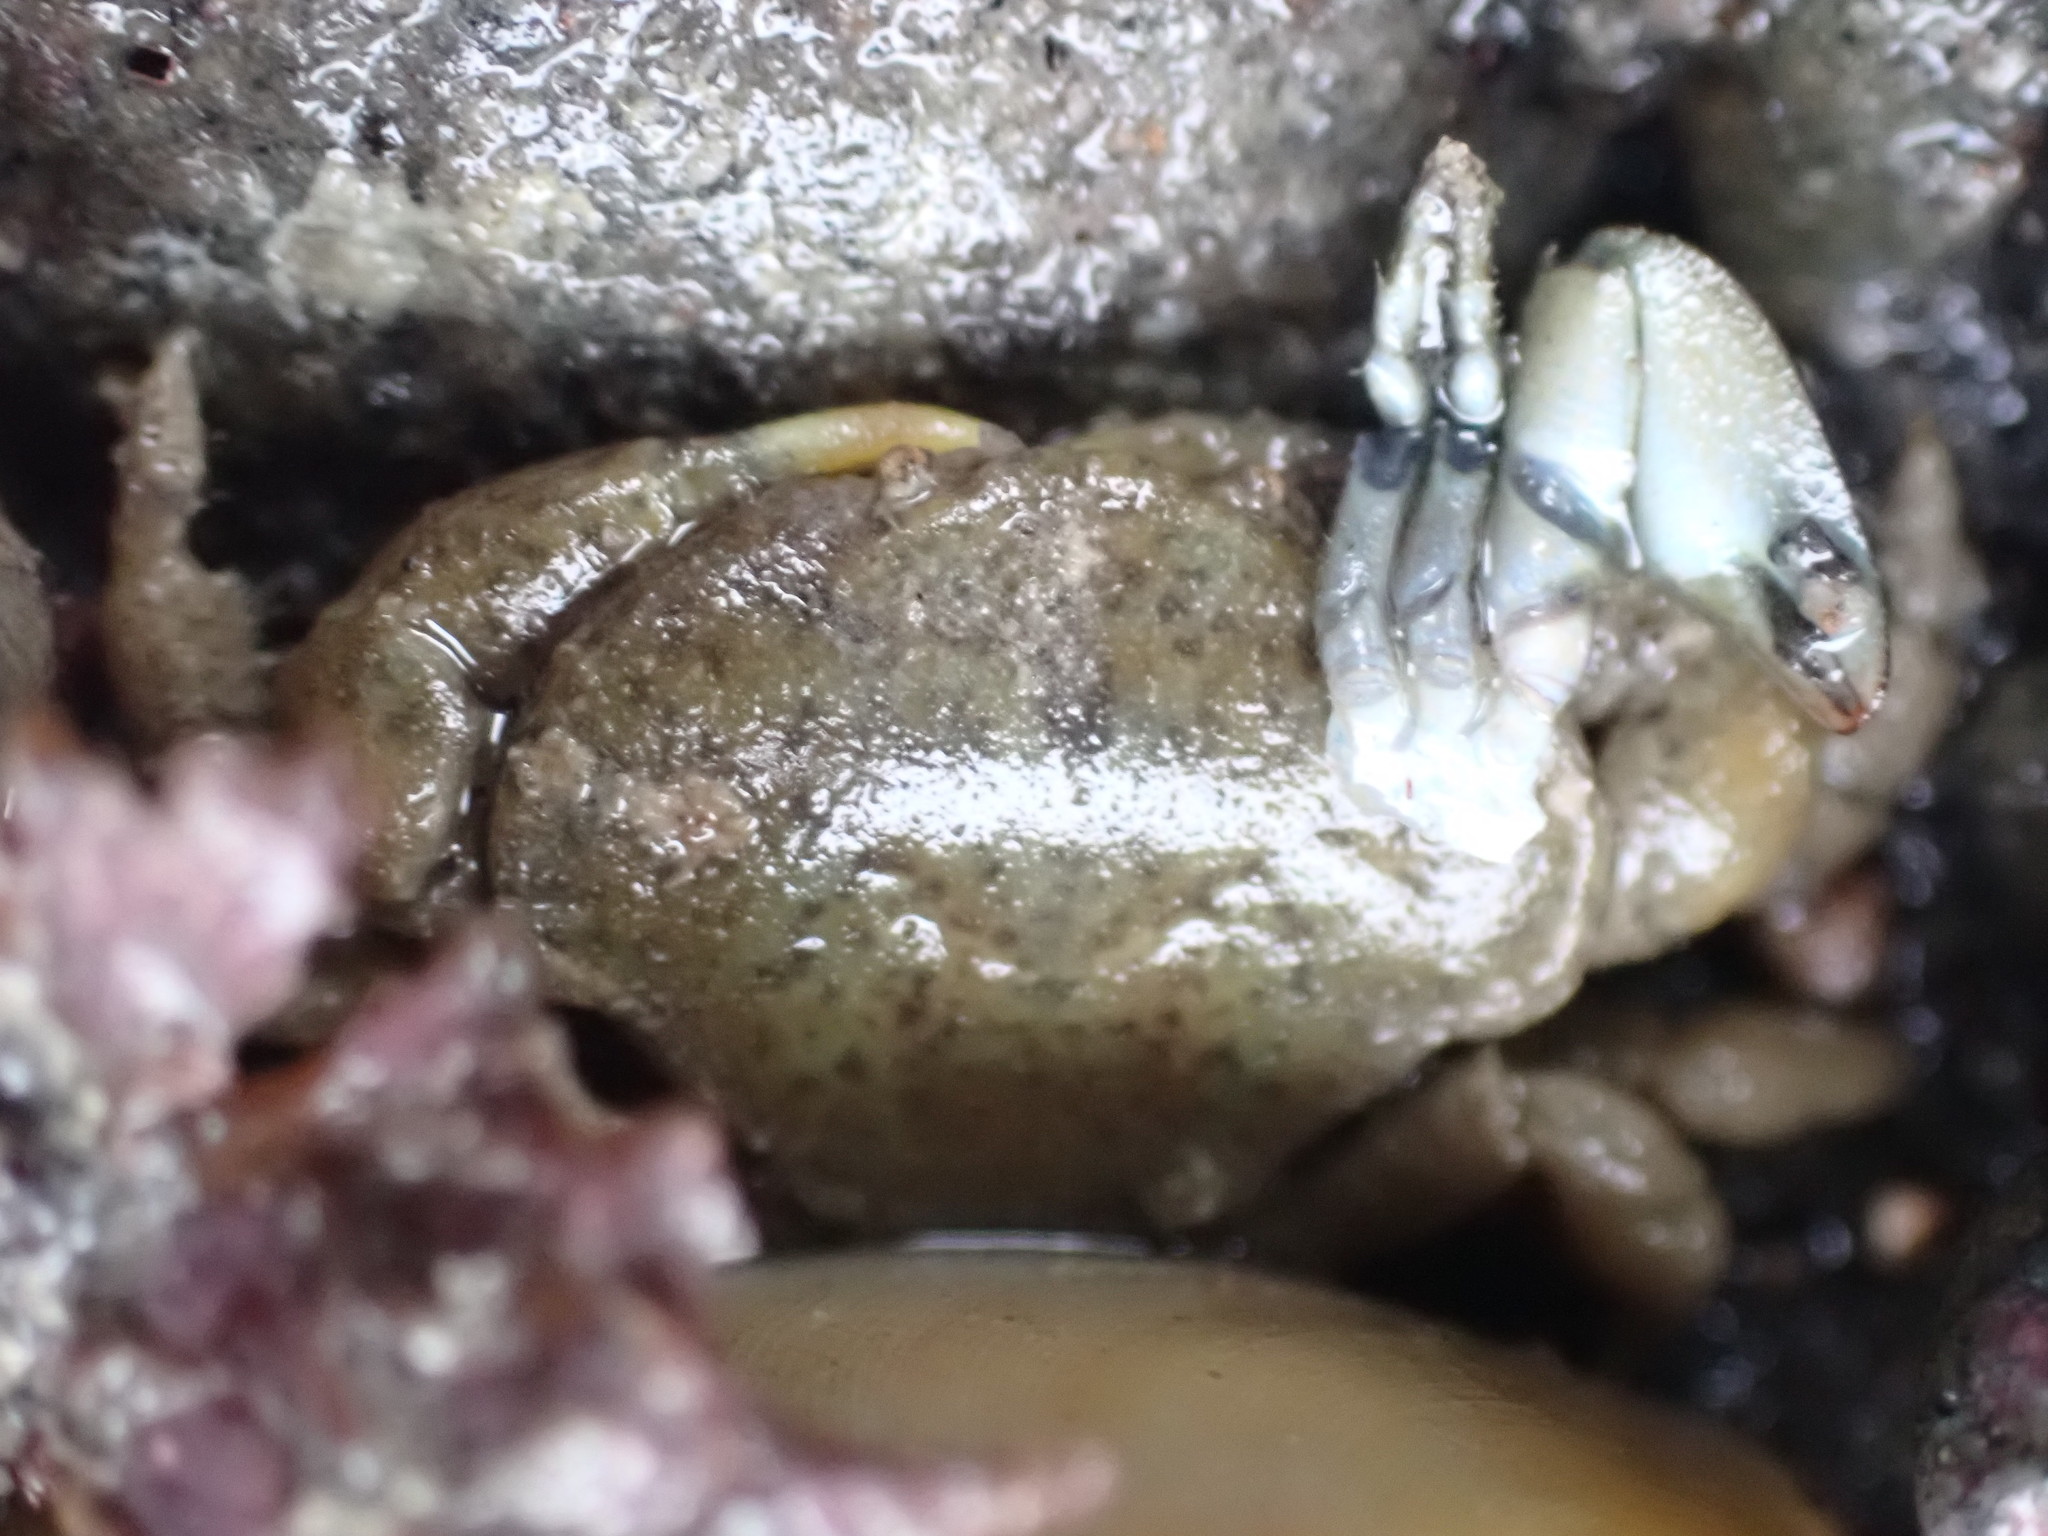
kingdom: Animalia
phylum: Arthropoda
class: Malacostraca
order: Decapoda
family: Heteroziidae
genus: Heterozius
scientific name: Heterozius rotundifrons
